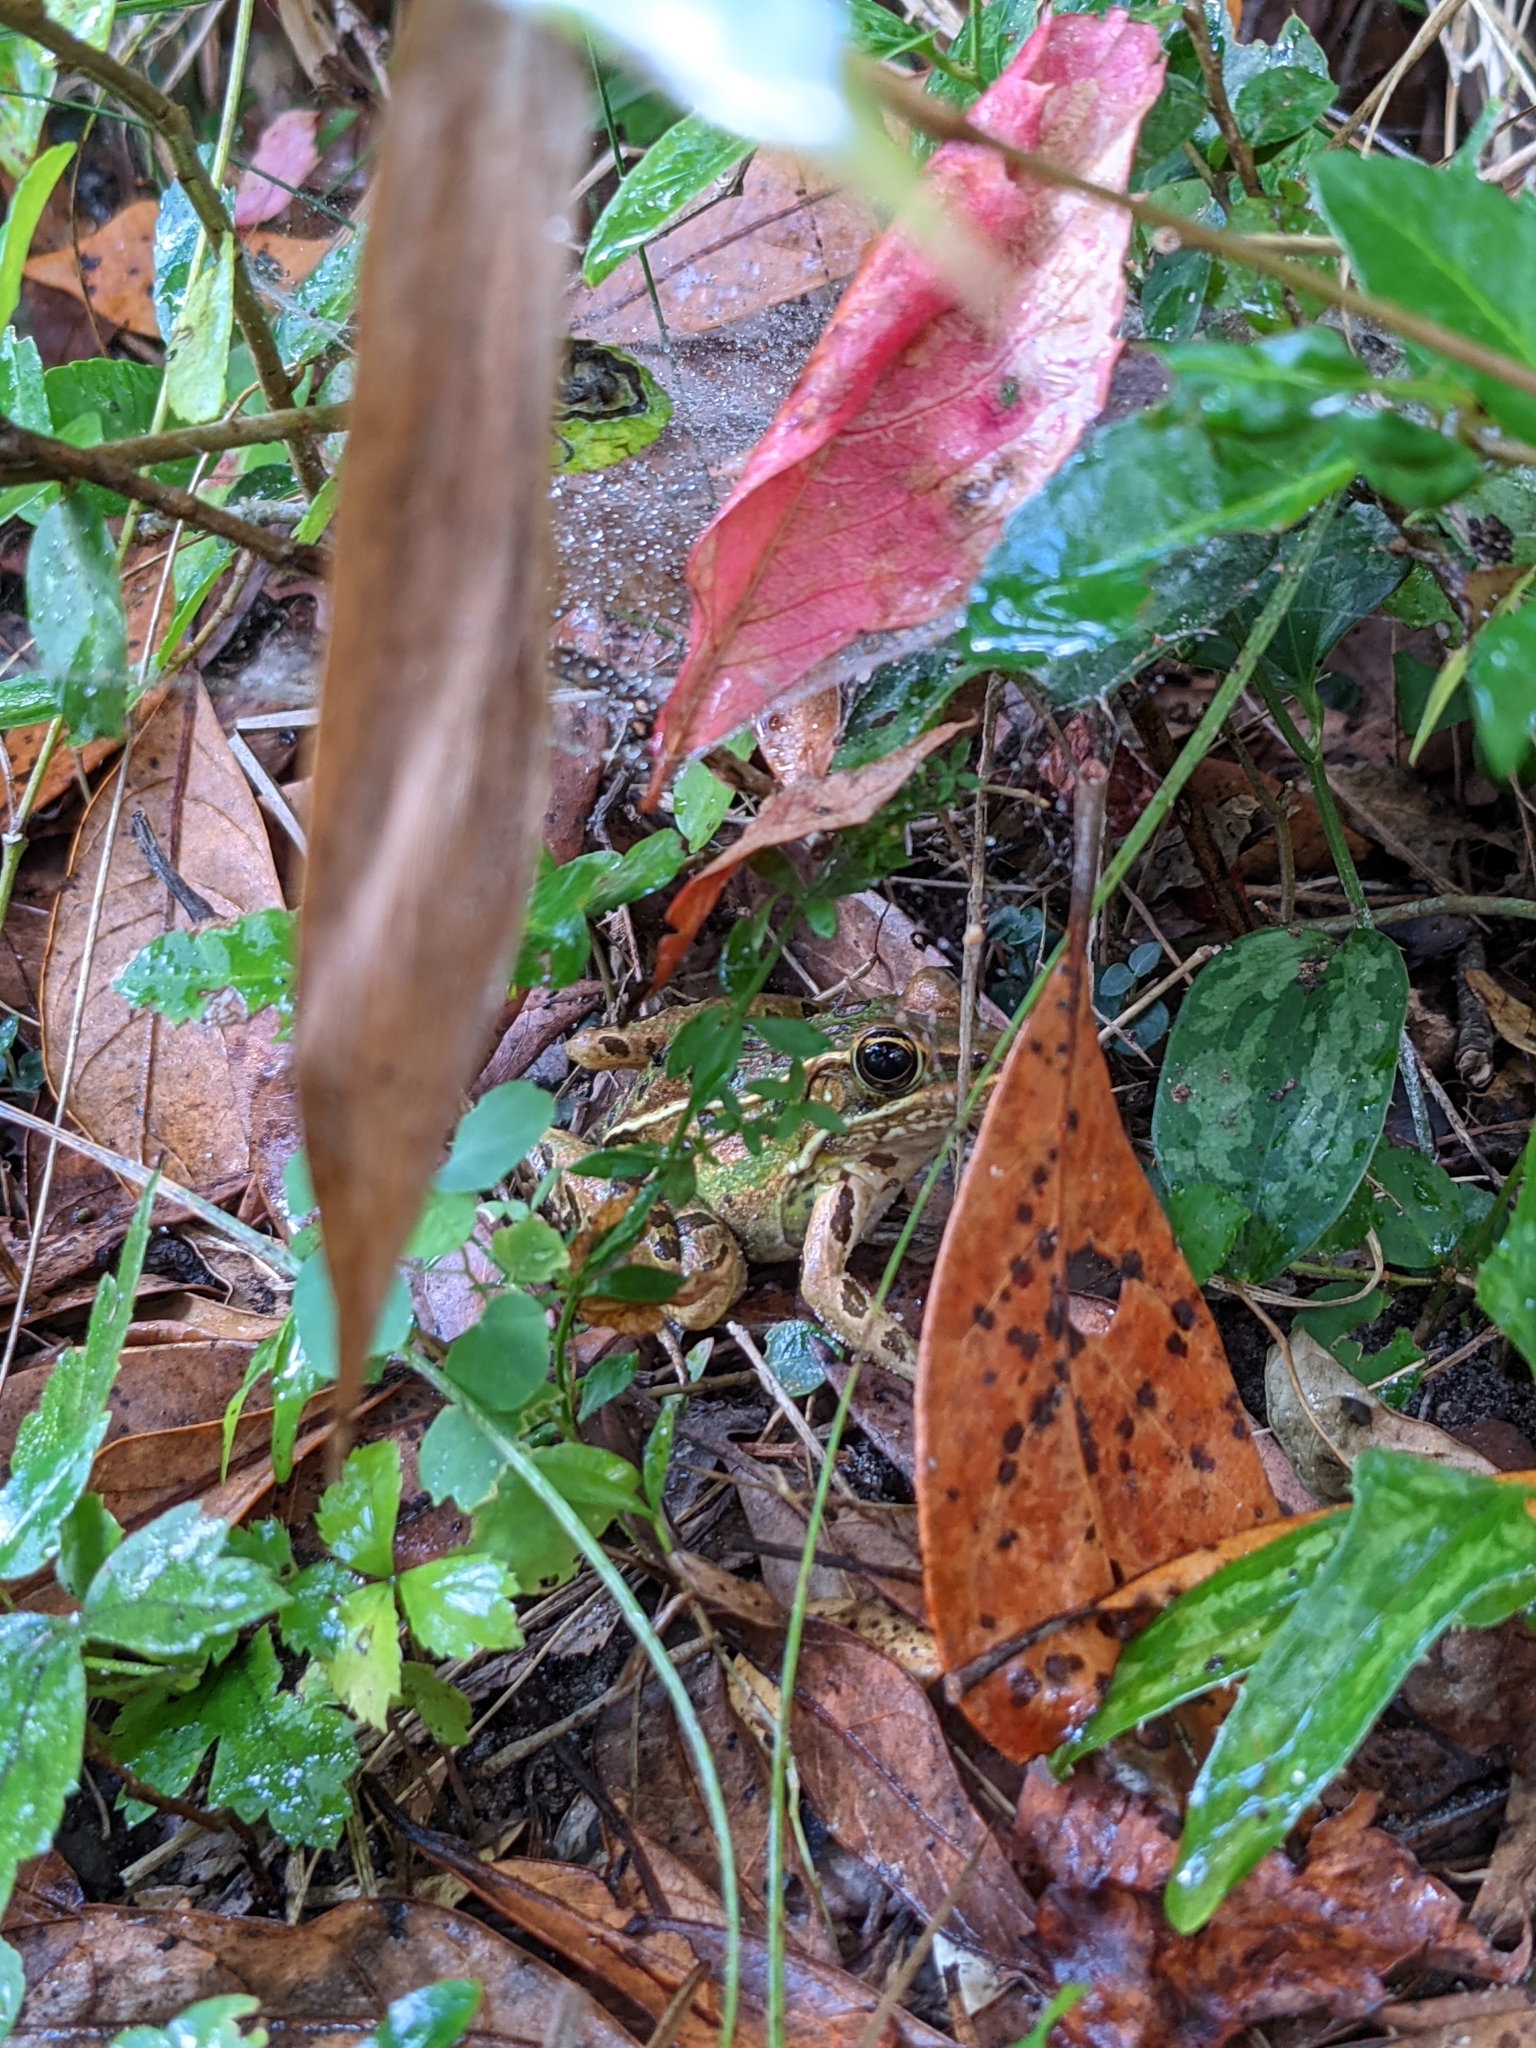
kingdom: Animalia
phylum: Chordata
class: Amphibia
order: Anura
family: Ranidae
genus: Lithobates
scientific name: Lithobates sphenocephalus
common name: Southern leopard frog
